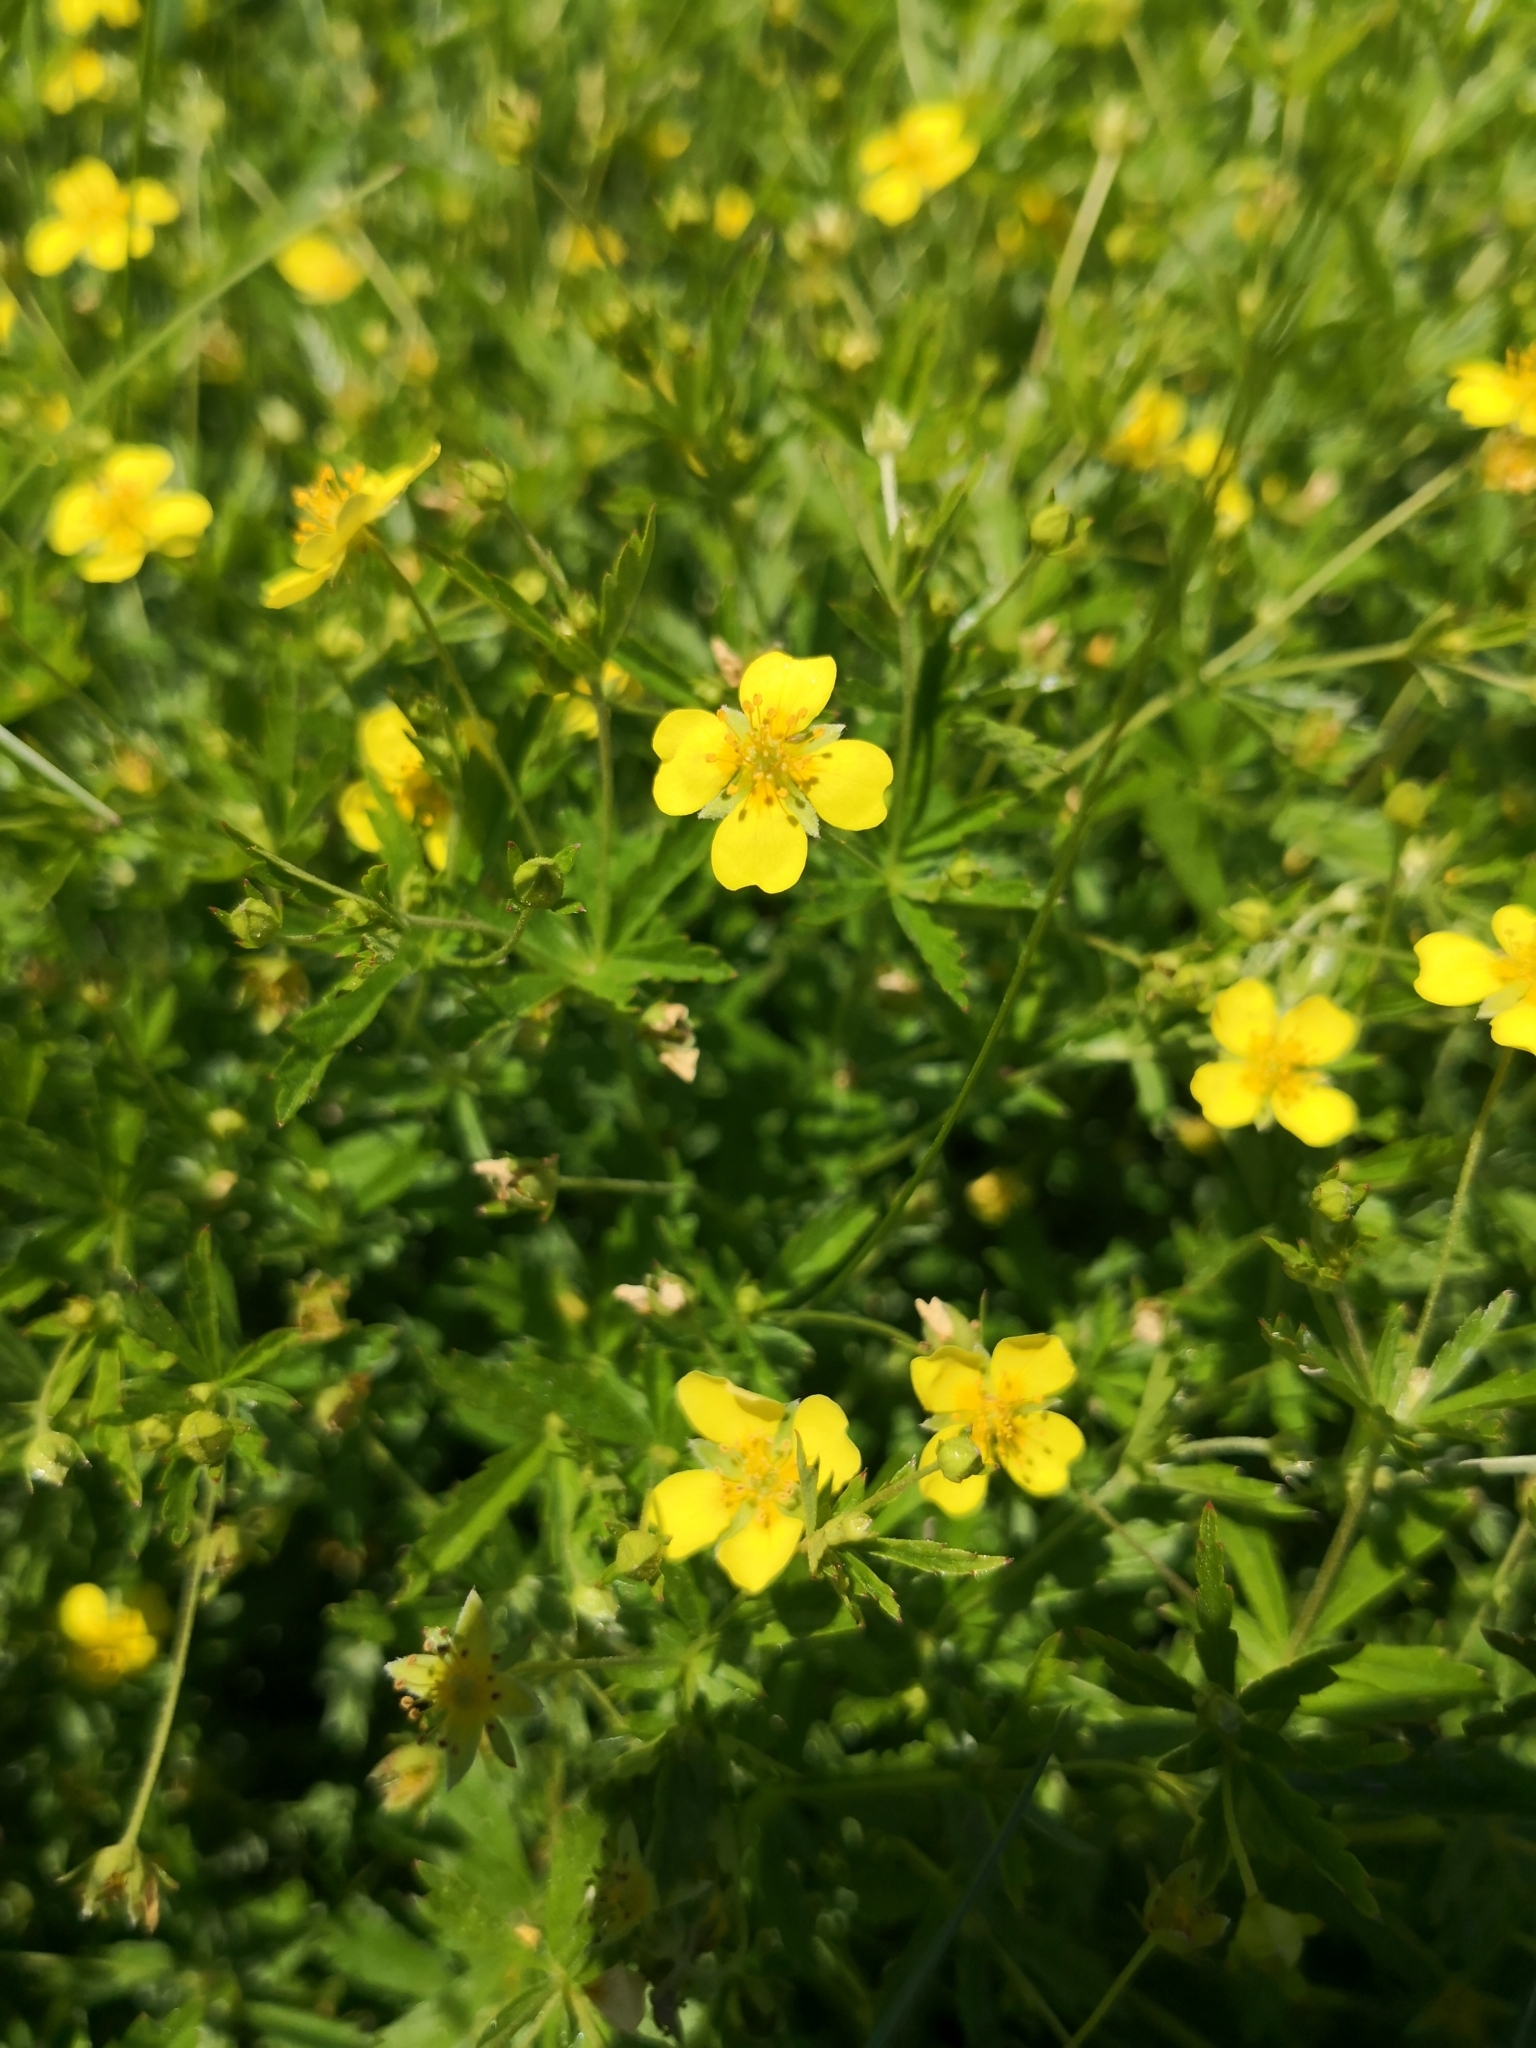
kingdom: Plantae
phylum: Tracheophyta
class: Magnoliopsida
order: Rosales
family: Rosaceae
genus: Potentilla
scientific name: Potentilla erecta
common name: Tormentil
